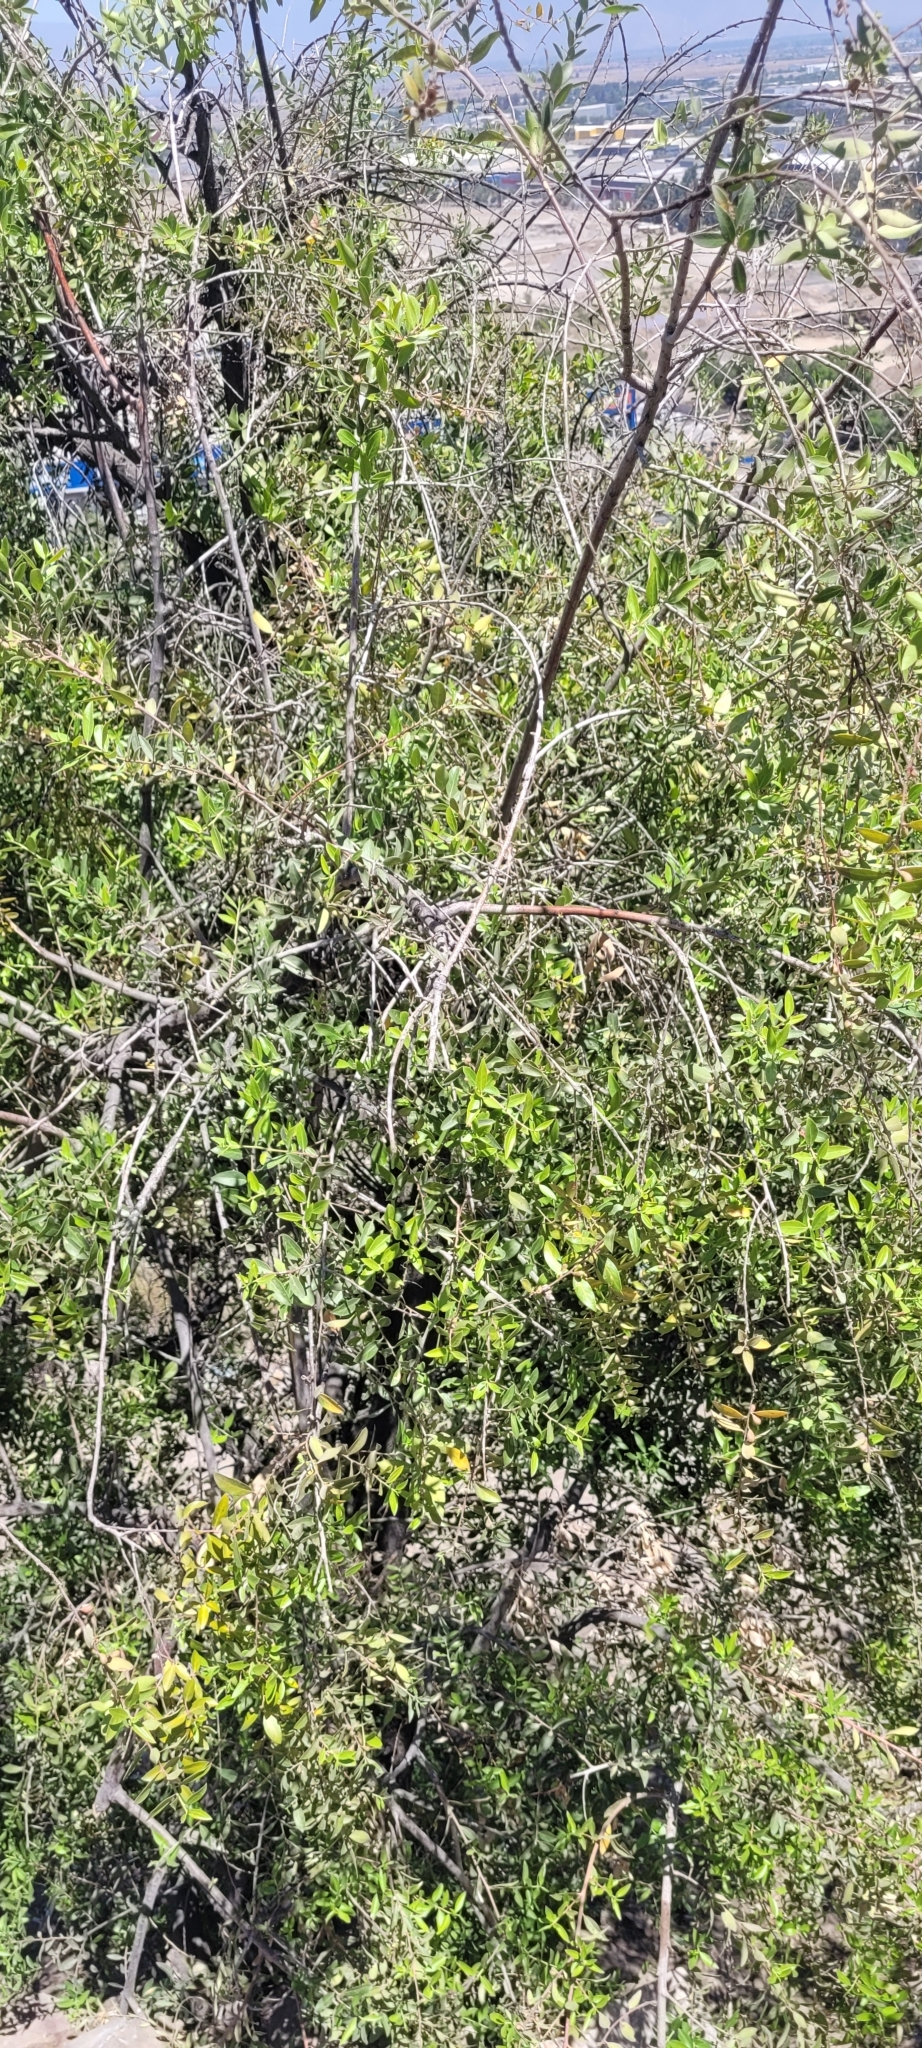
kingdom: Plantae
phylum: Tracheophyta
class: Magnoliopsida
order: Celastrales
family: Celastraceae
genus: Maytenus
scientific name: Maytenus boaria
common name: Mayten
